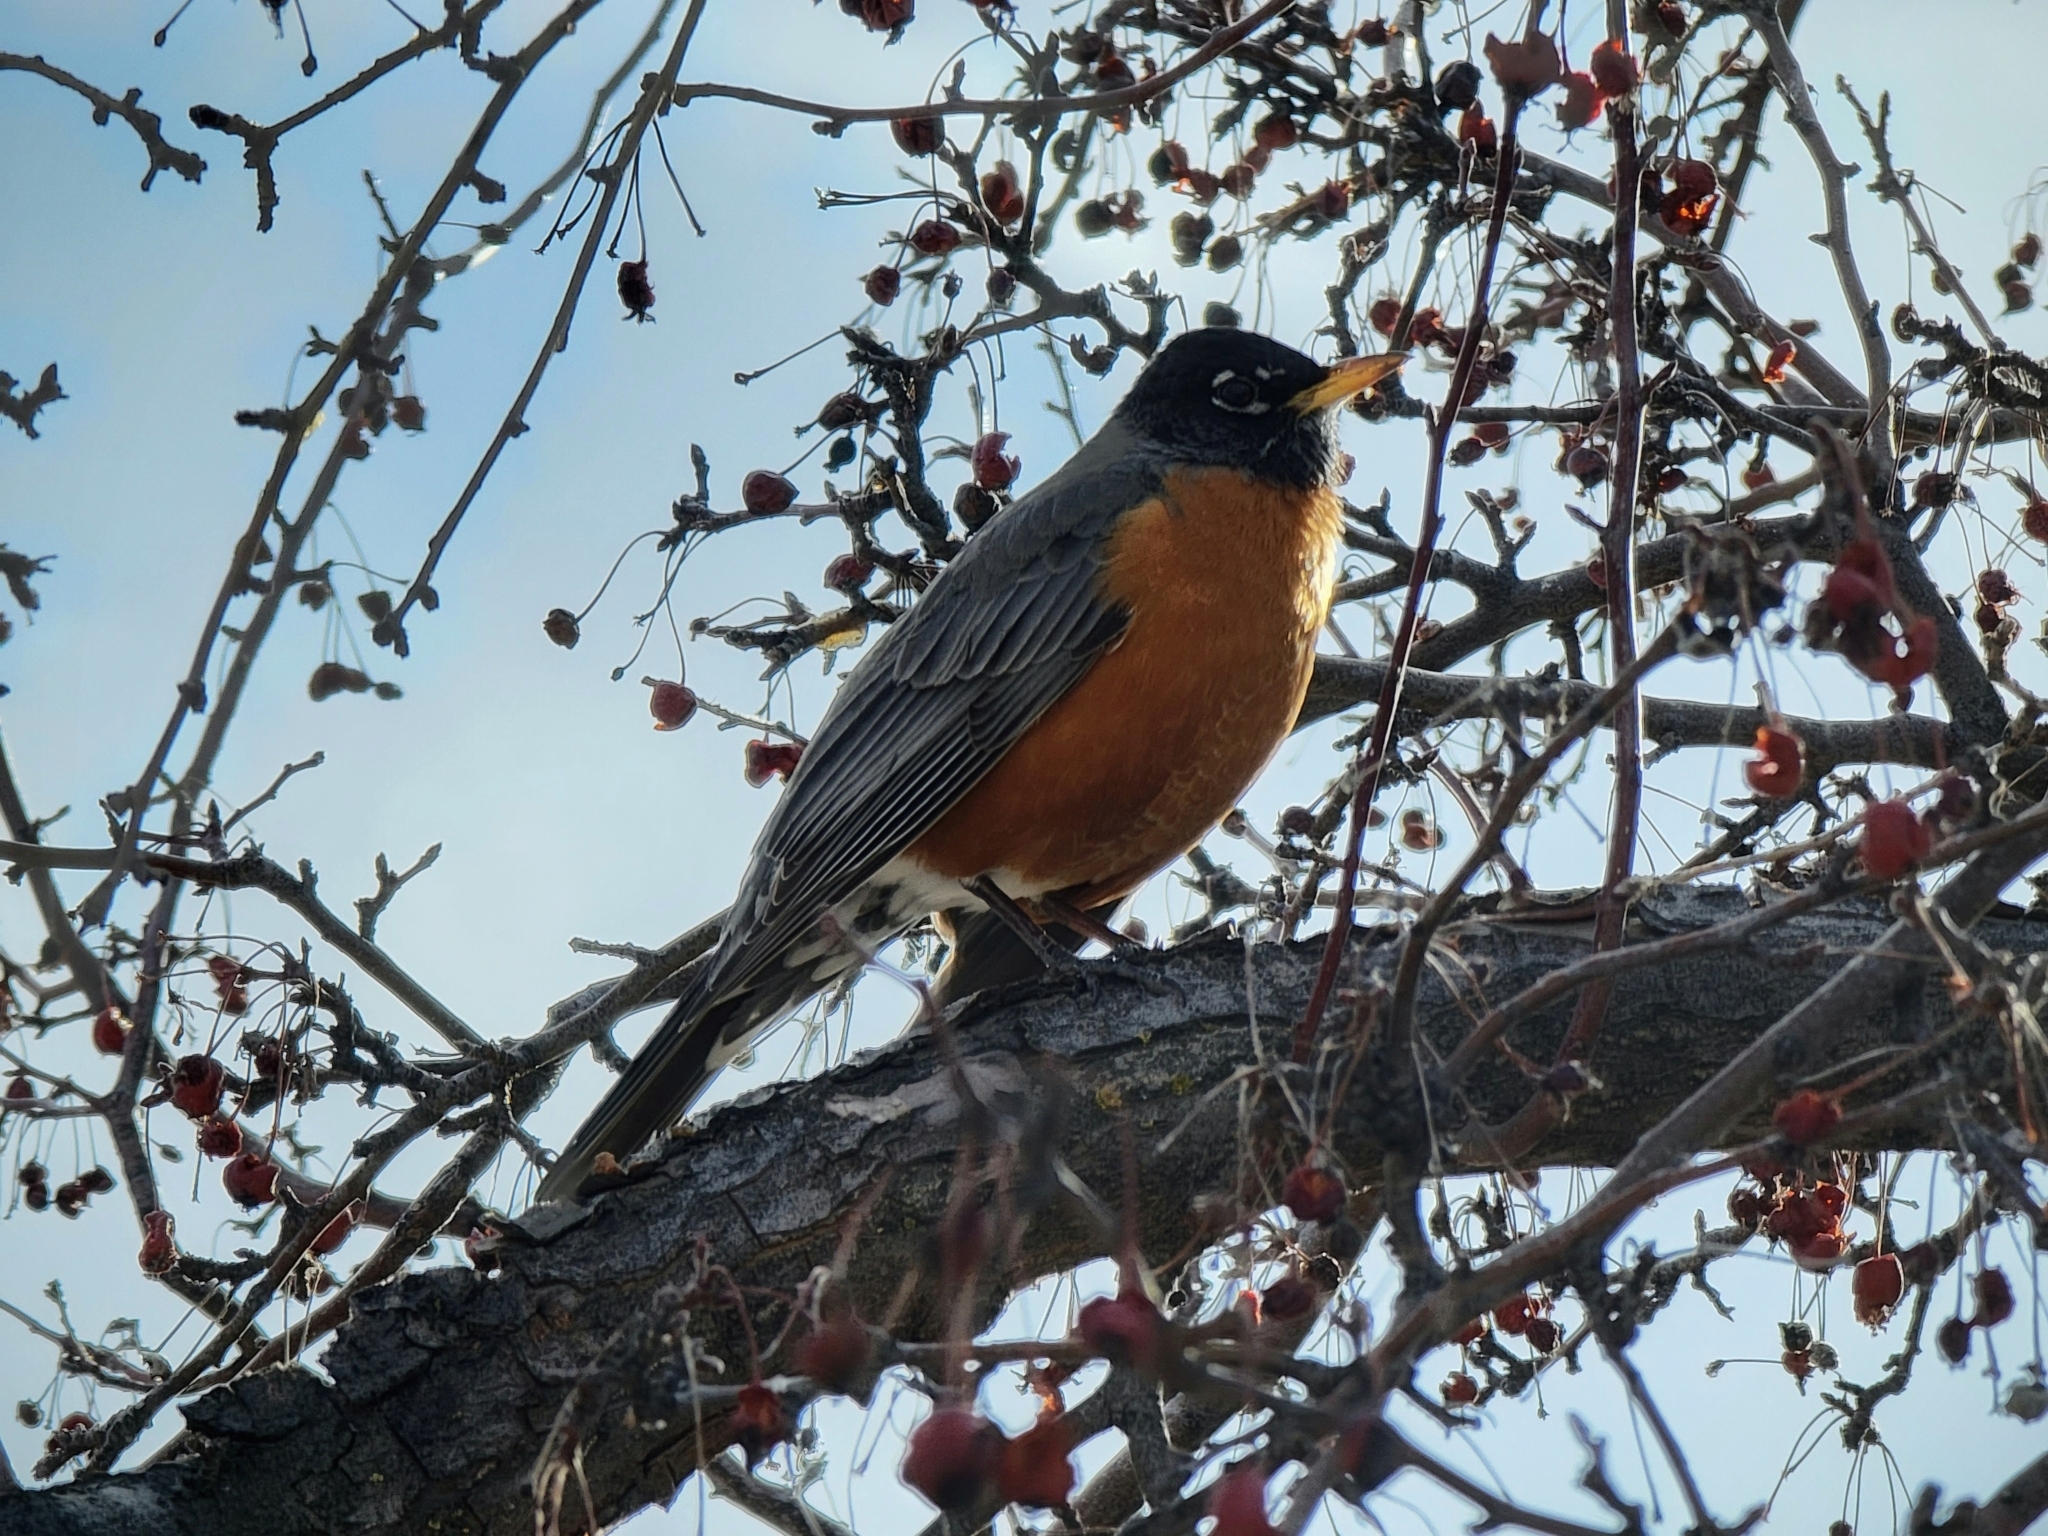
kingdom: Animalia
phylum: Chordata
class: Aves
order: Passeriformes
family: Turdidae
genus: Turdus
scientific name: Turdus migratorius
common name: American robin
